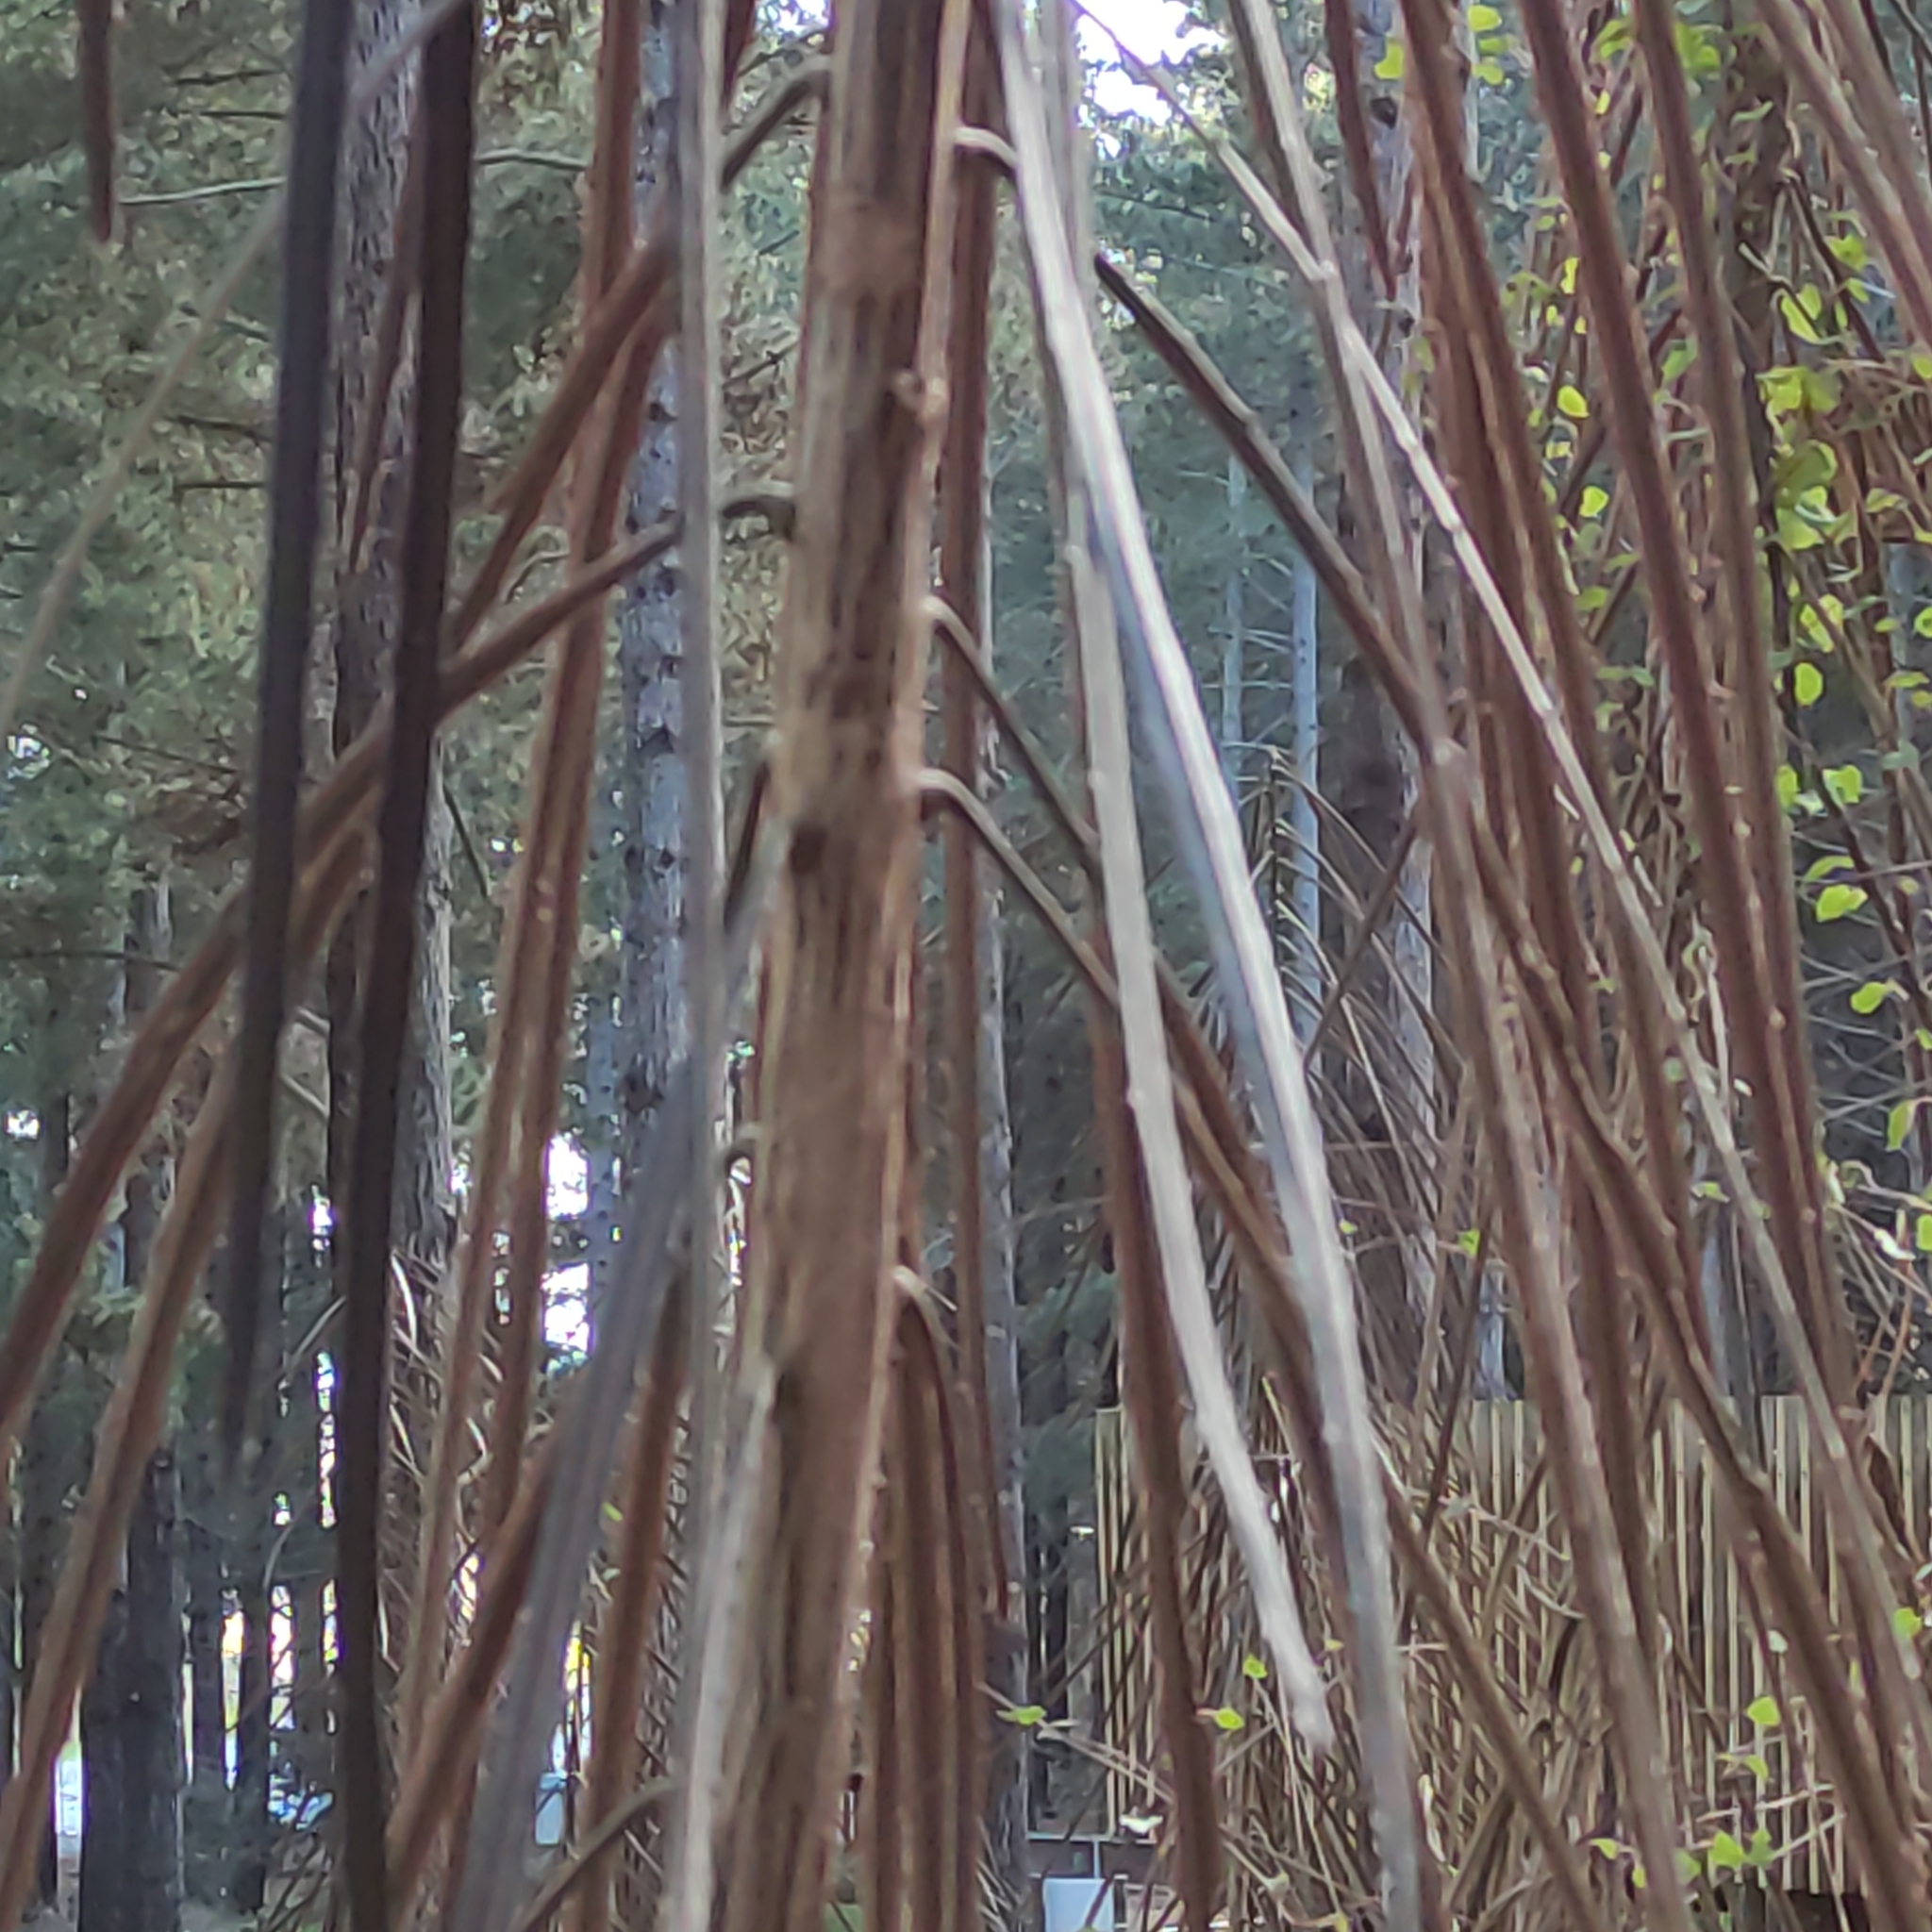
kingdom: Plantae
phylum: Tracheophyta
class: Magnoliopsida
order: Apiales
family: Araliaceae
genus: Pseudopanax
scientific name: Pseudopanax crassifolius
